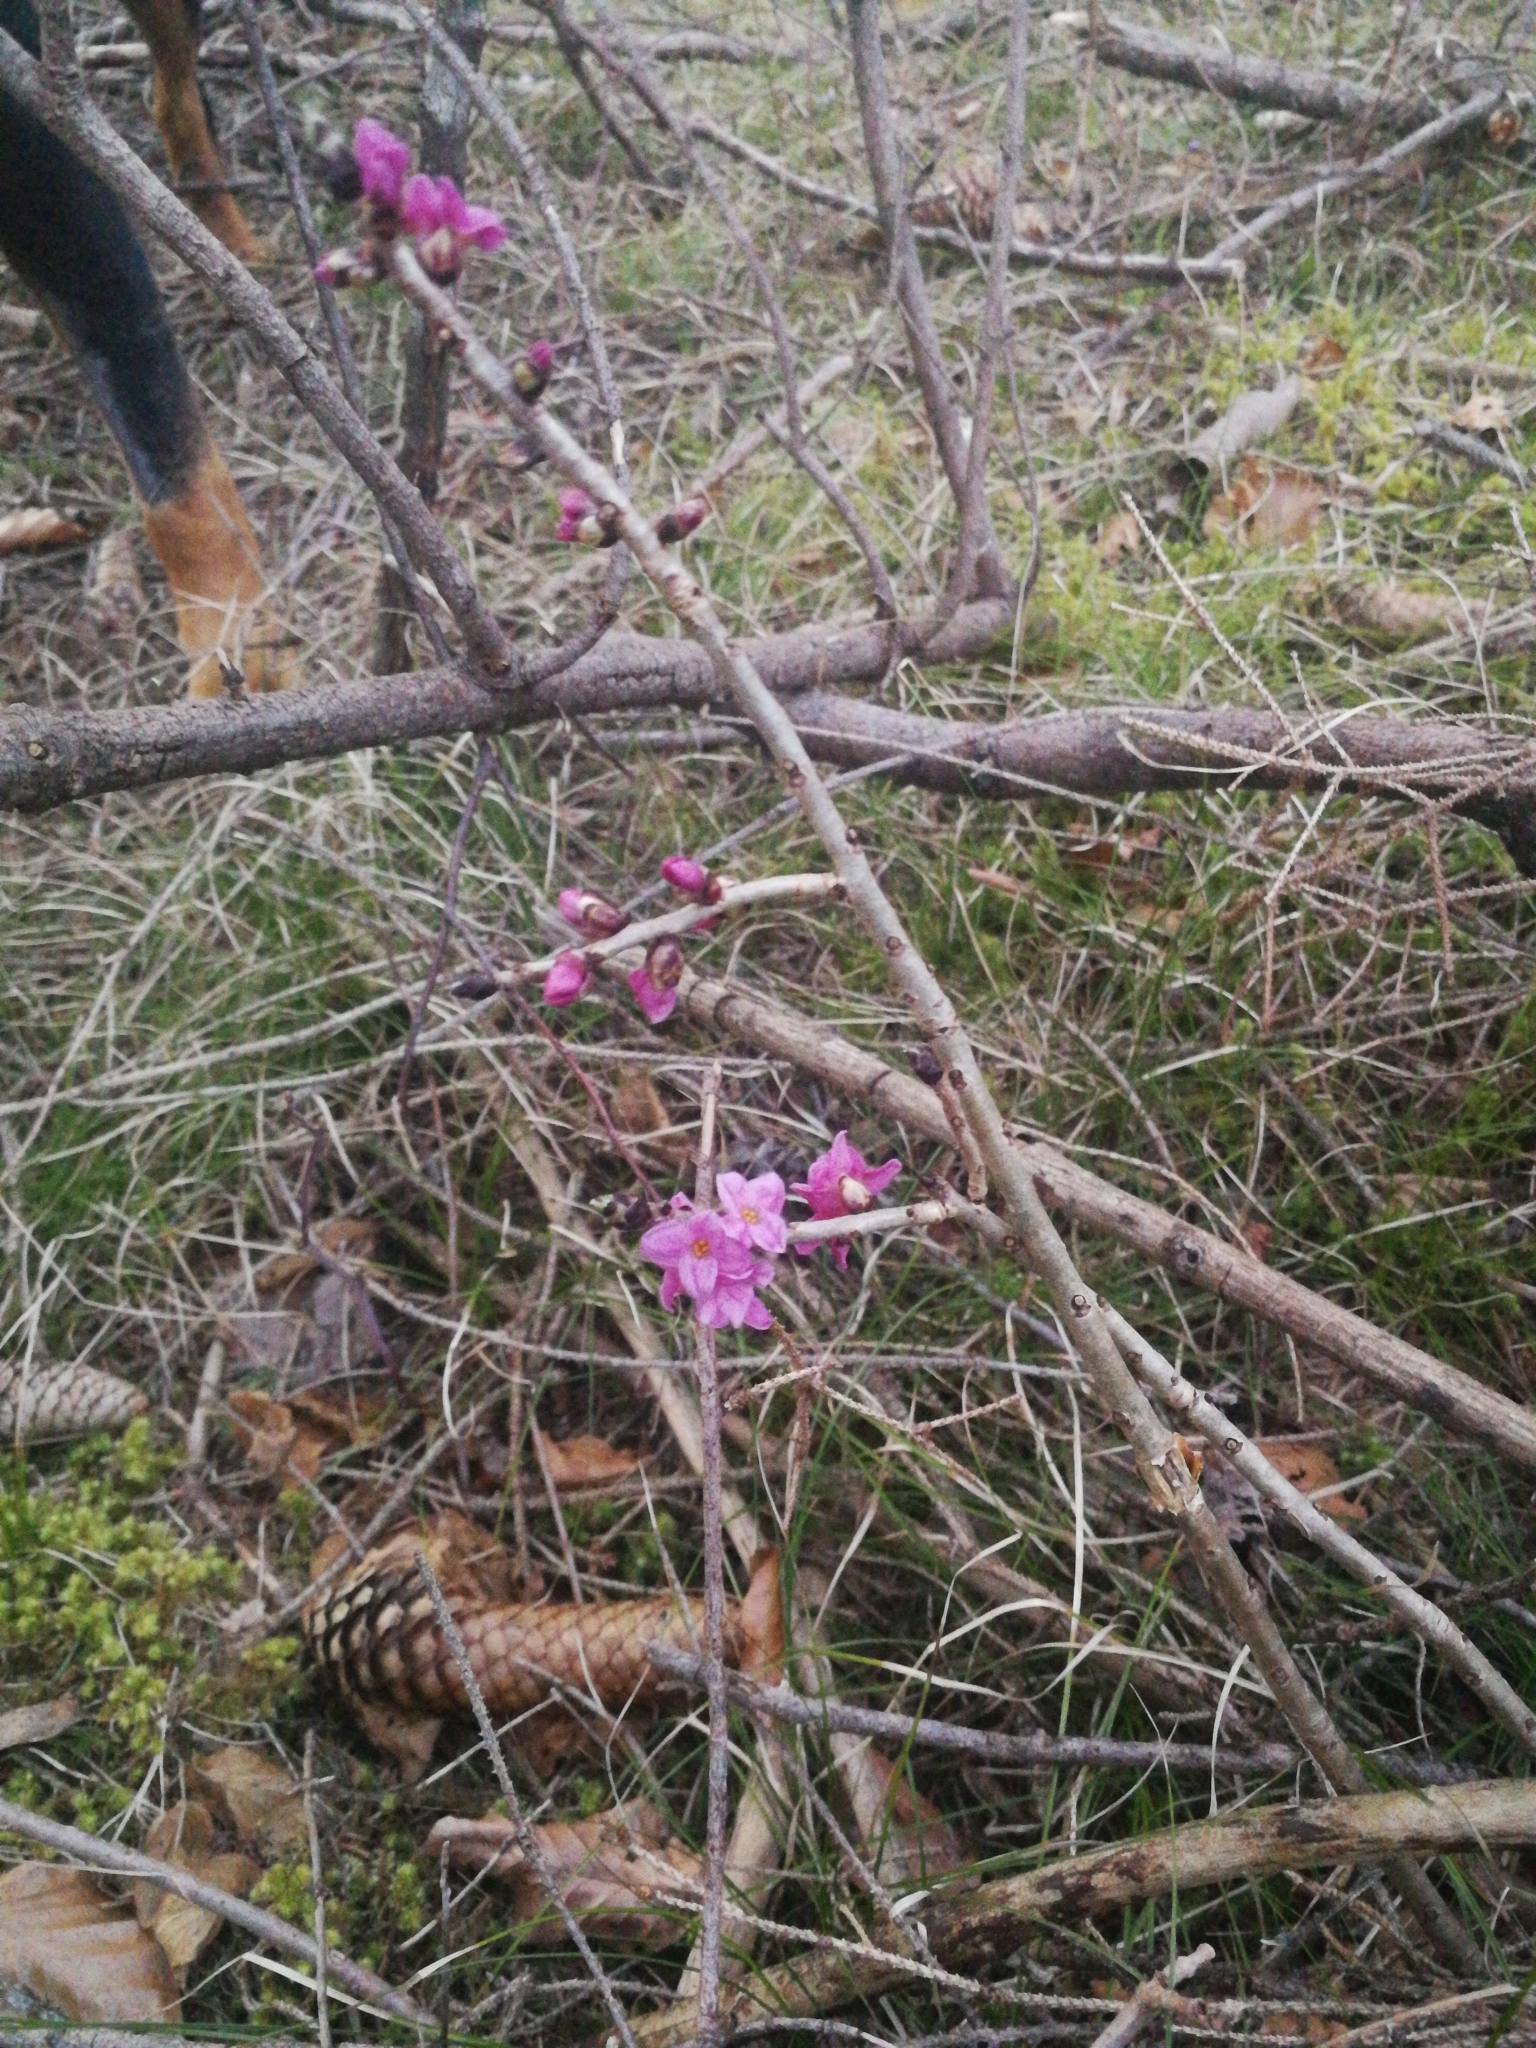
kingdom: Plantae
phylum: Tracheophyta
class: Magnoliopsida
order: Malvales
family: Thymelaeaceae
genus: Daphne
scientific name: Daphne mezereum
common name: Mezereon
